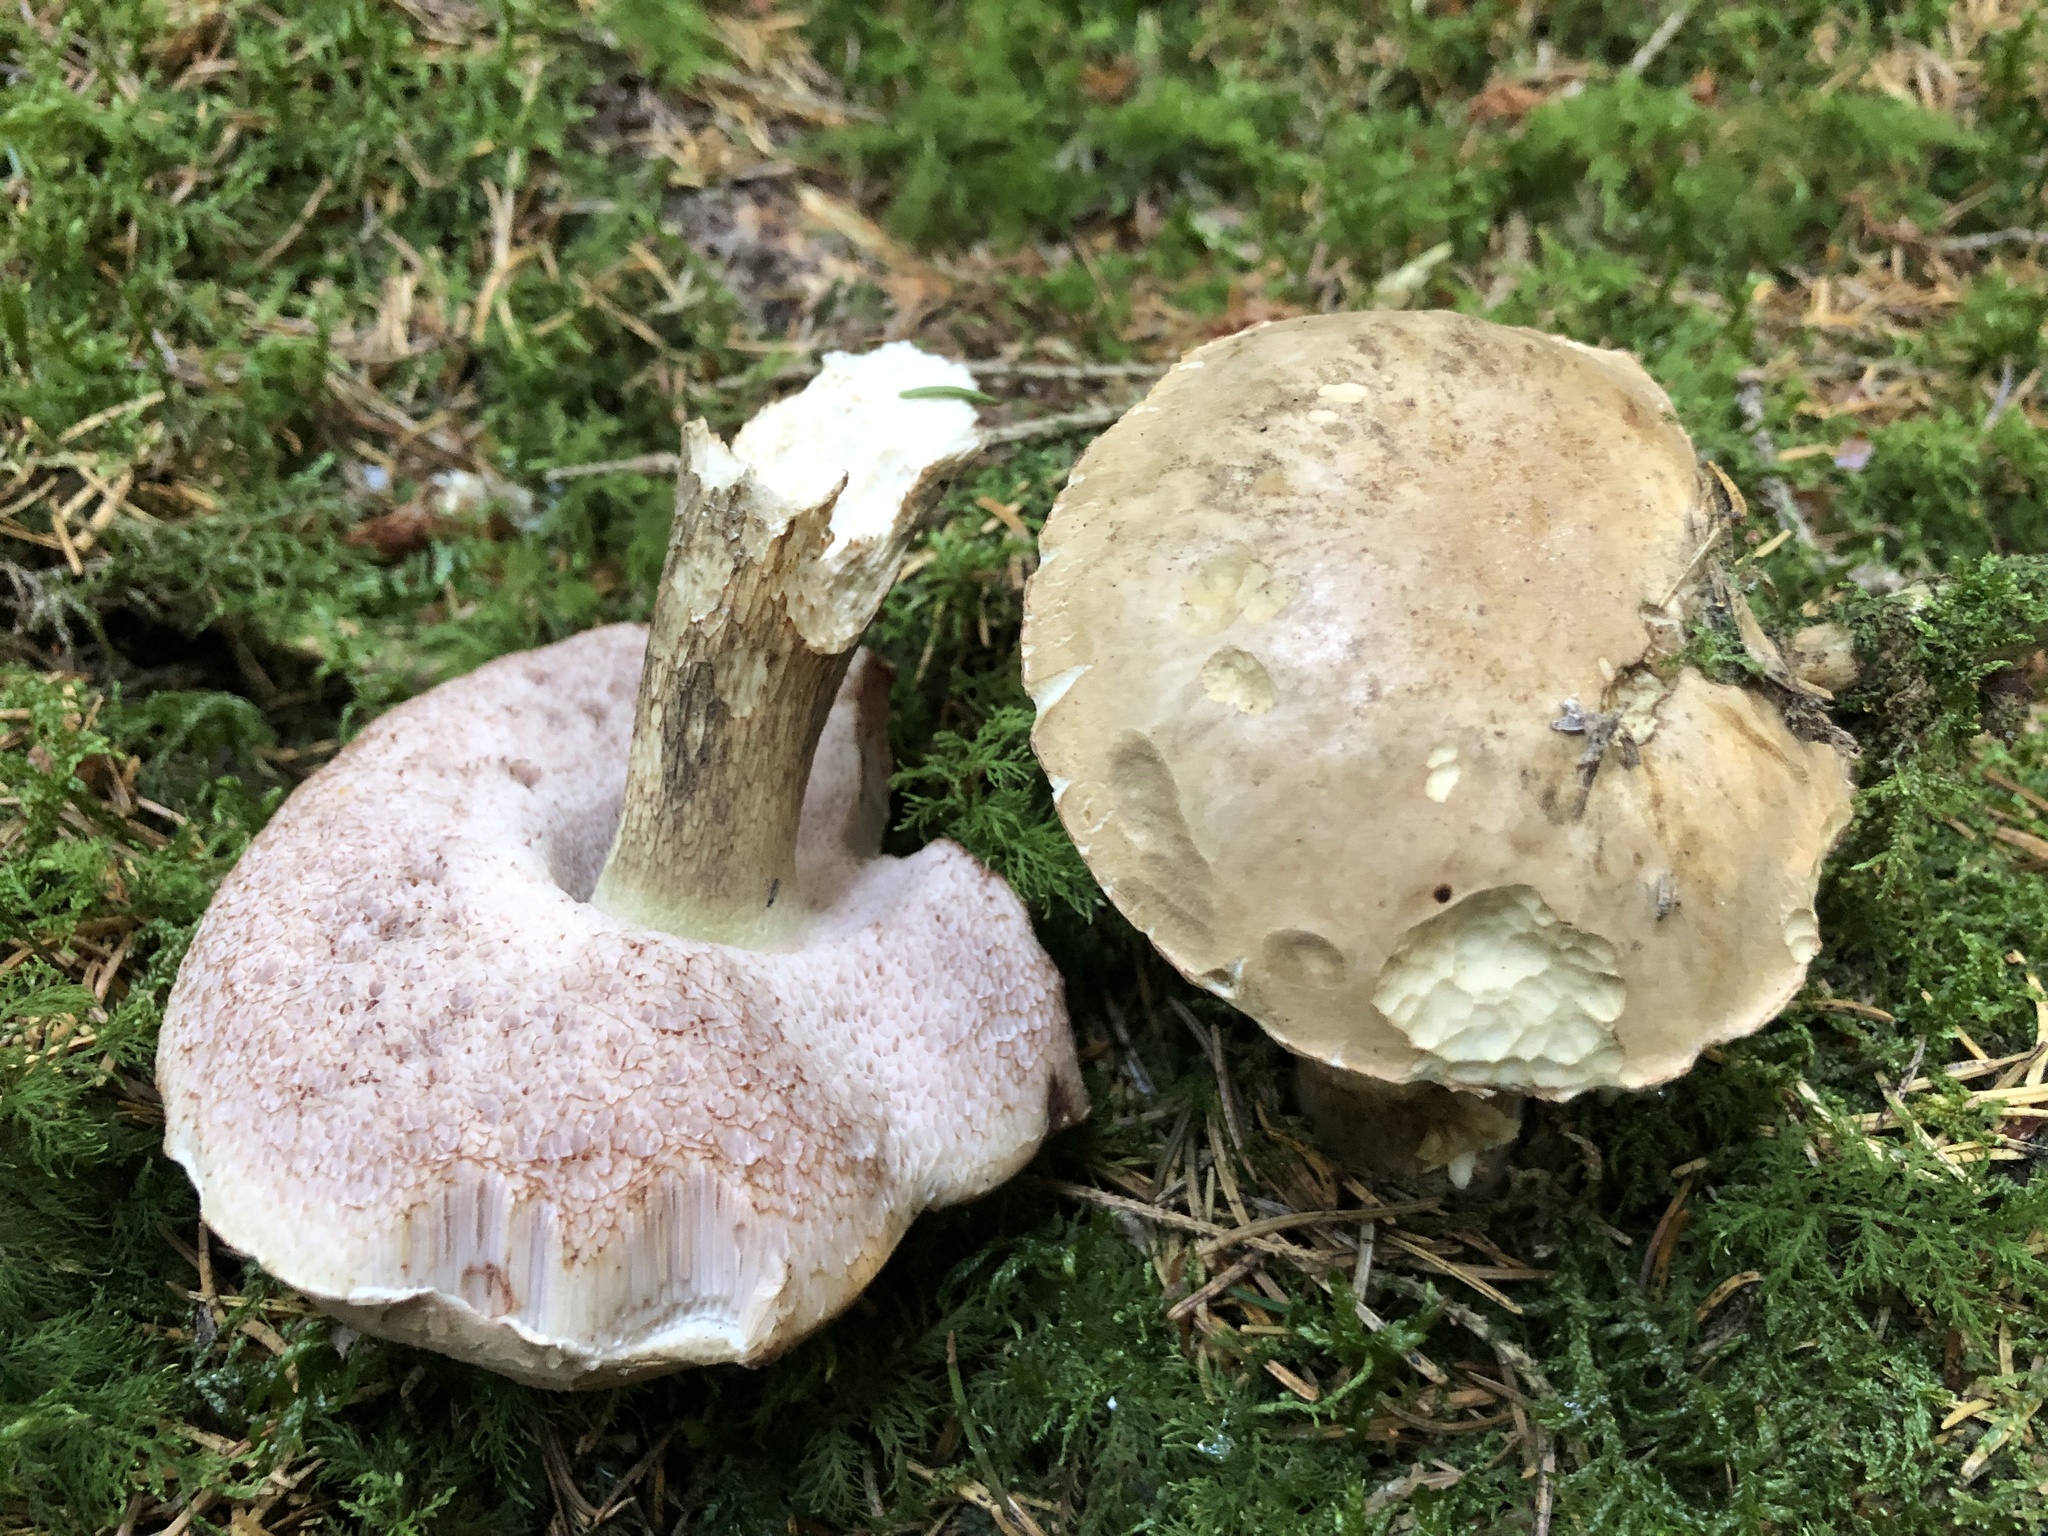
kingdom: Fungi
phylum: Basidiomycota
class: Agaricomycetes
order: Boletales
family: Boletaceae
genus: Tylopilus
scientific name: Tylopilus felleus
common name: Bitter bolete
